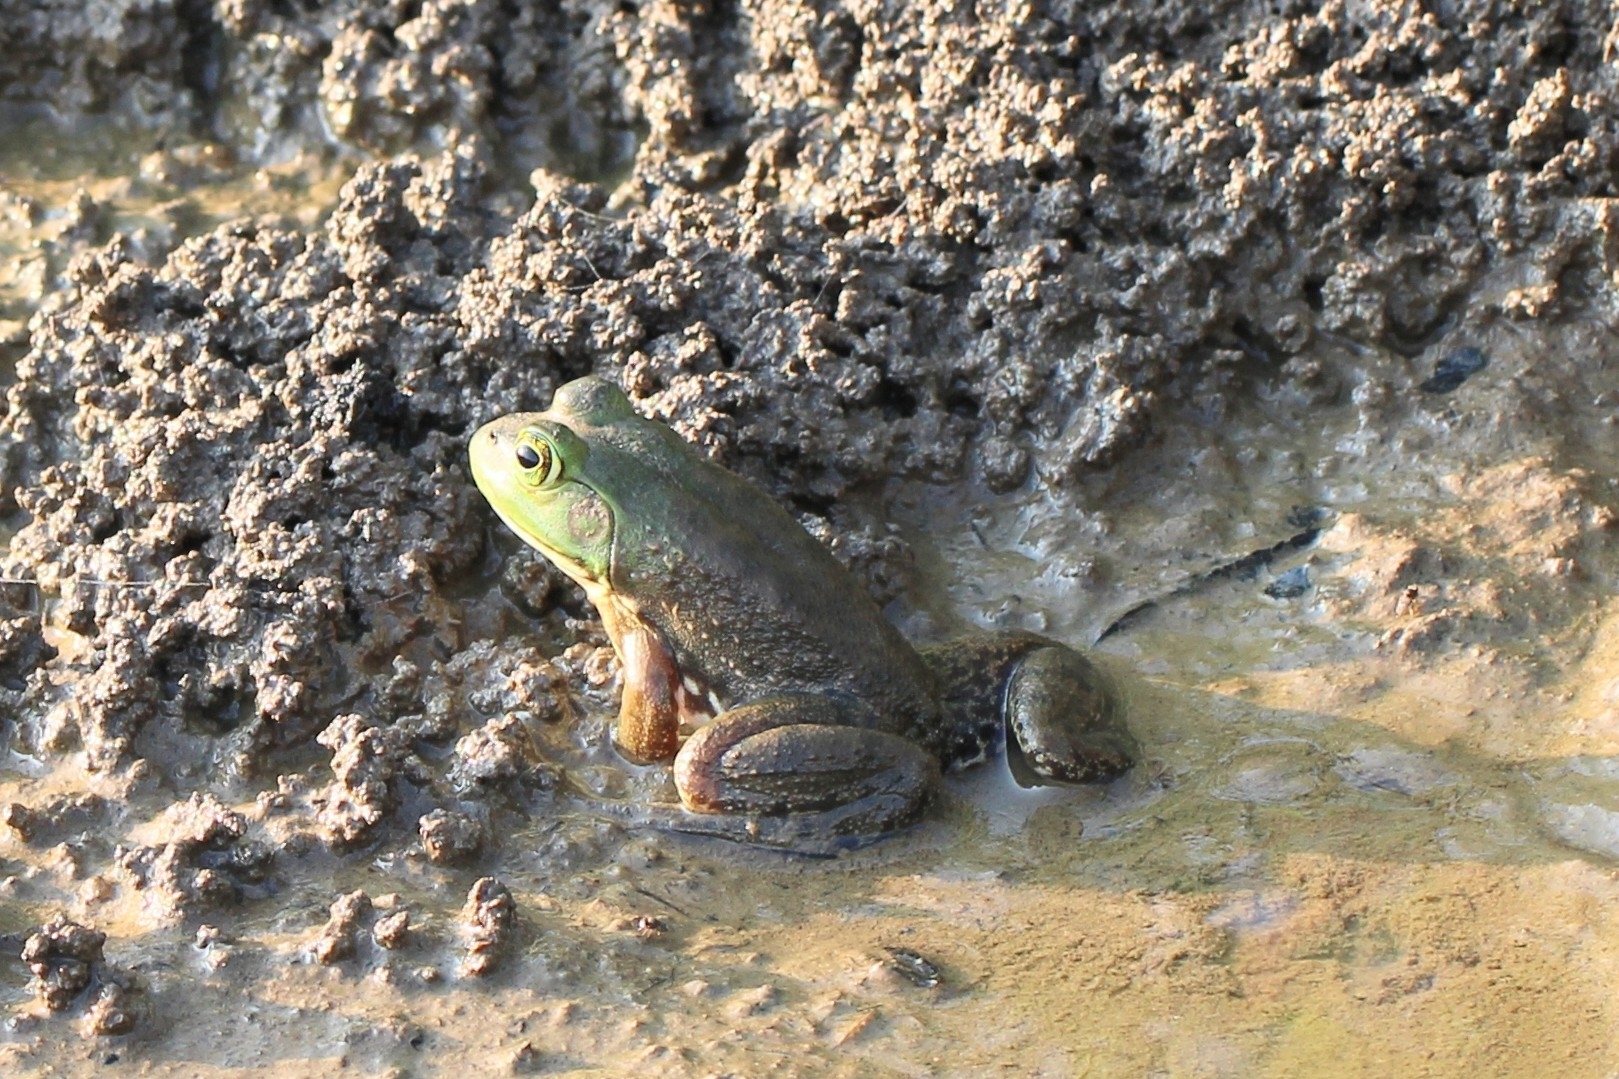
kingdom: Animalia
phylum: Chordata
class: Amphibia
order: Anura
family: Ranidae
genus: Lithobates
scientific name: Lithobates catesbeianus
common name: American bullfrog
